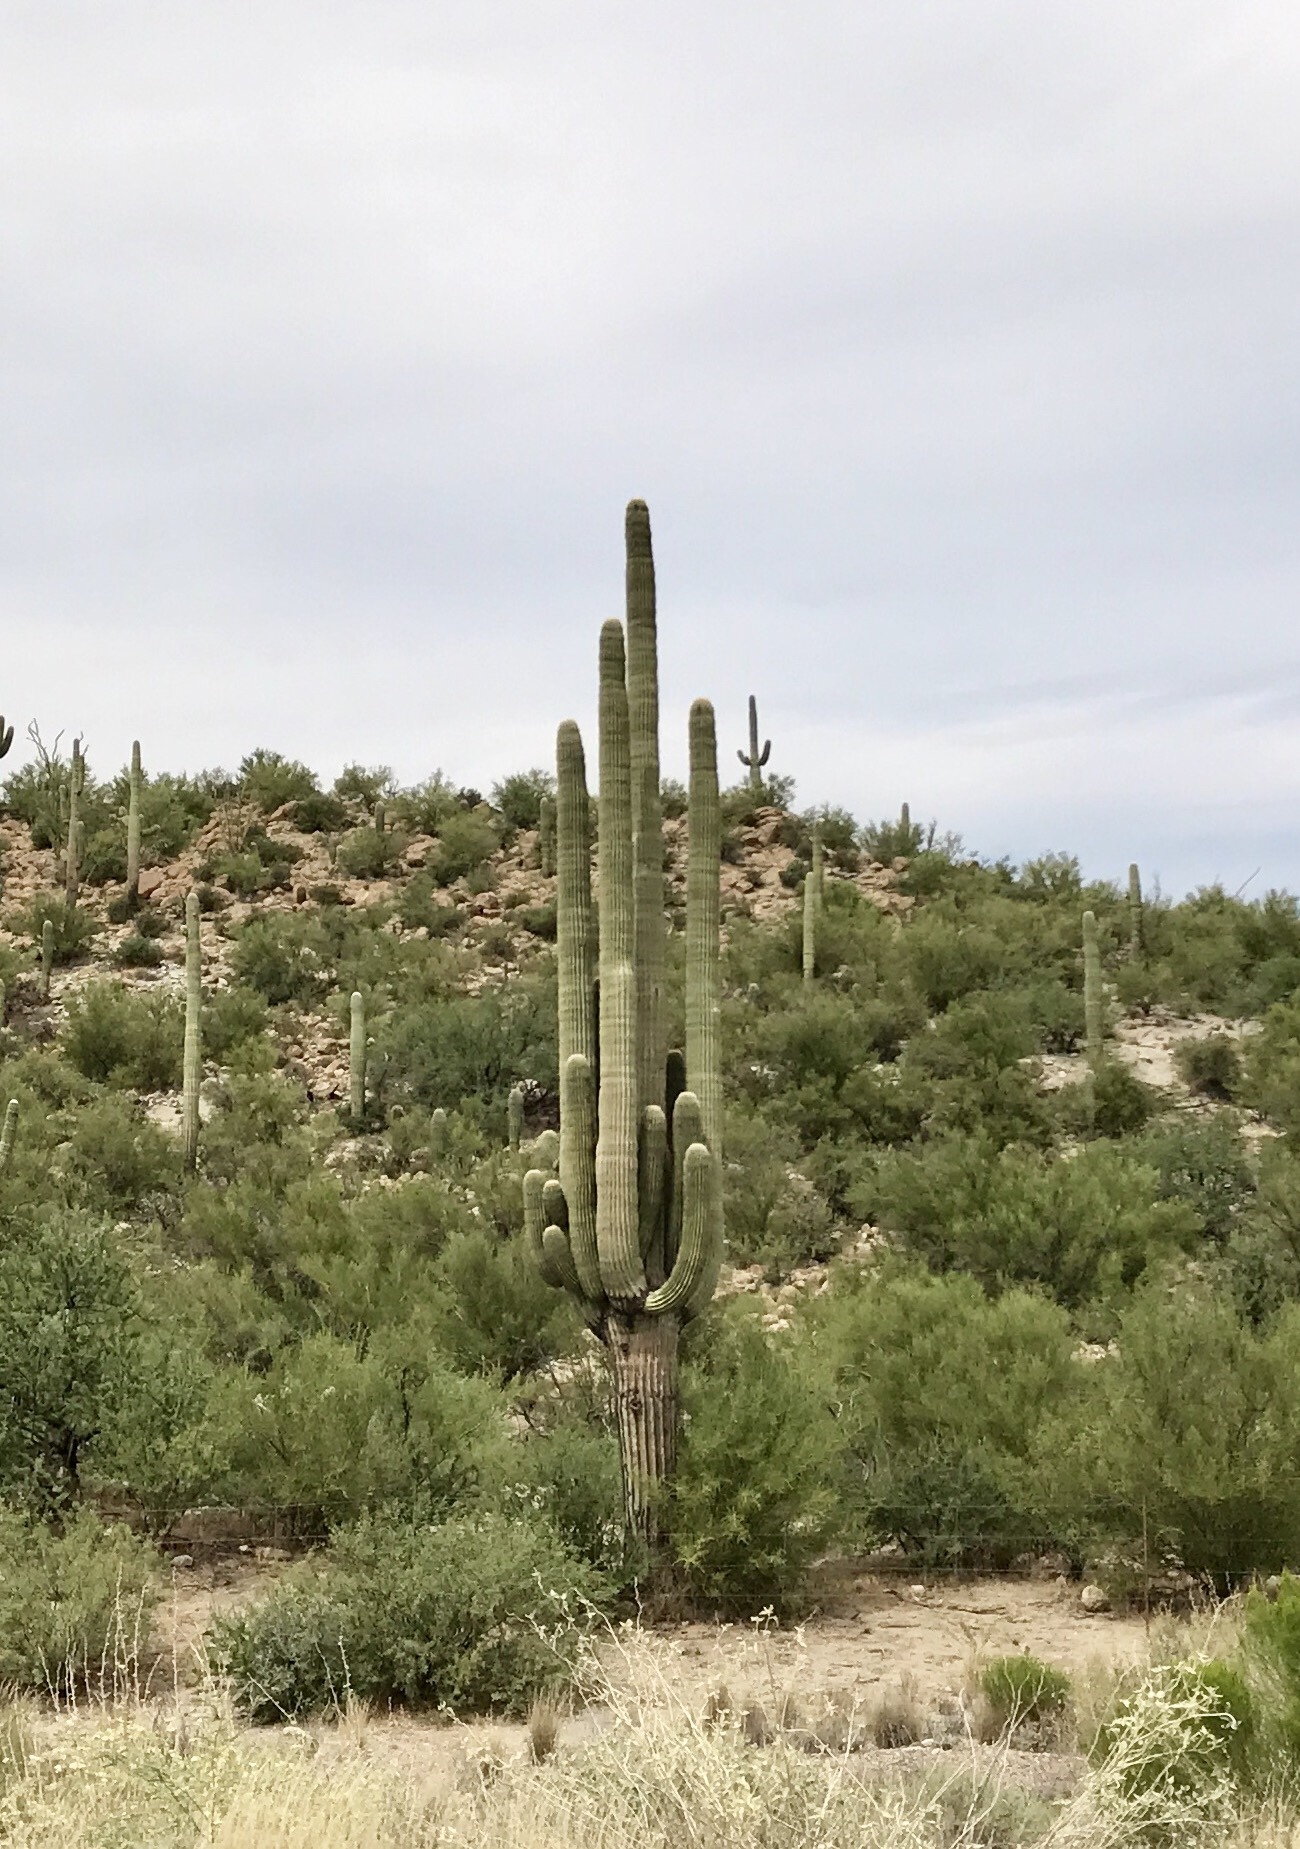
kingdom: Plantae
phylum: Tracheophyta
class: Magnoliopsida
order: Caryophyllales
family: Cactaceae
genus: Carnegiea
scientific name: Carnegiea gigantea
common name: Saguaro
